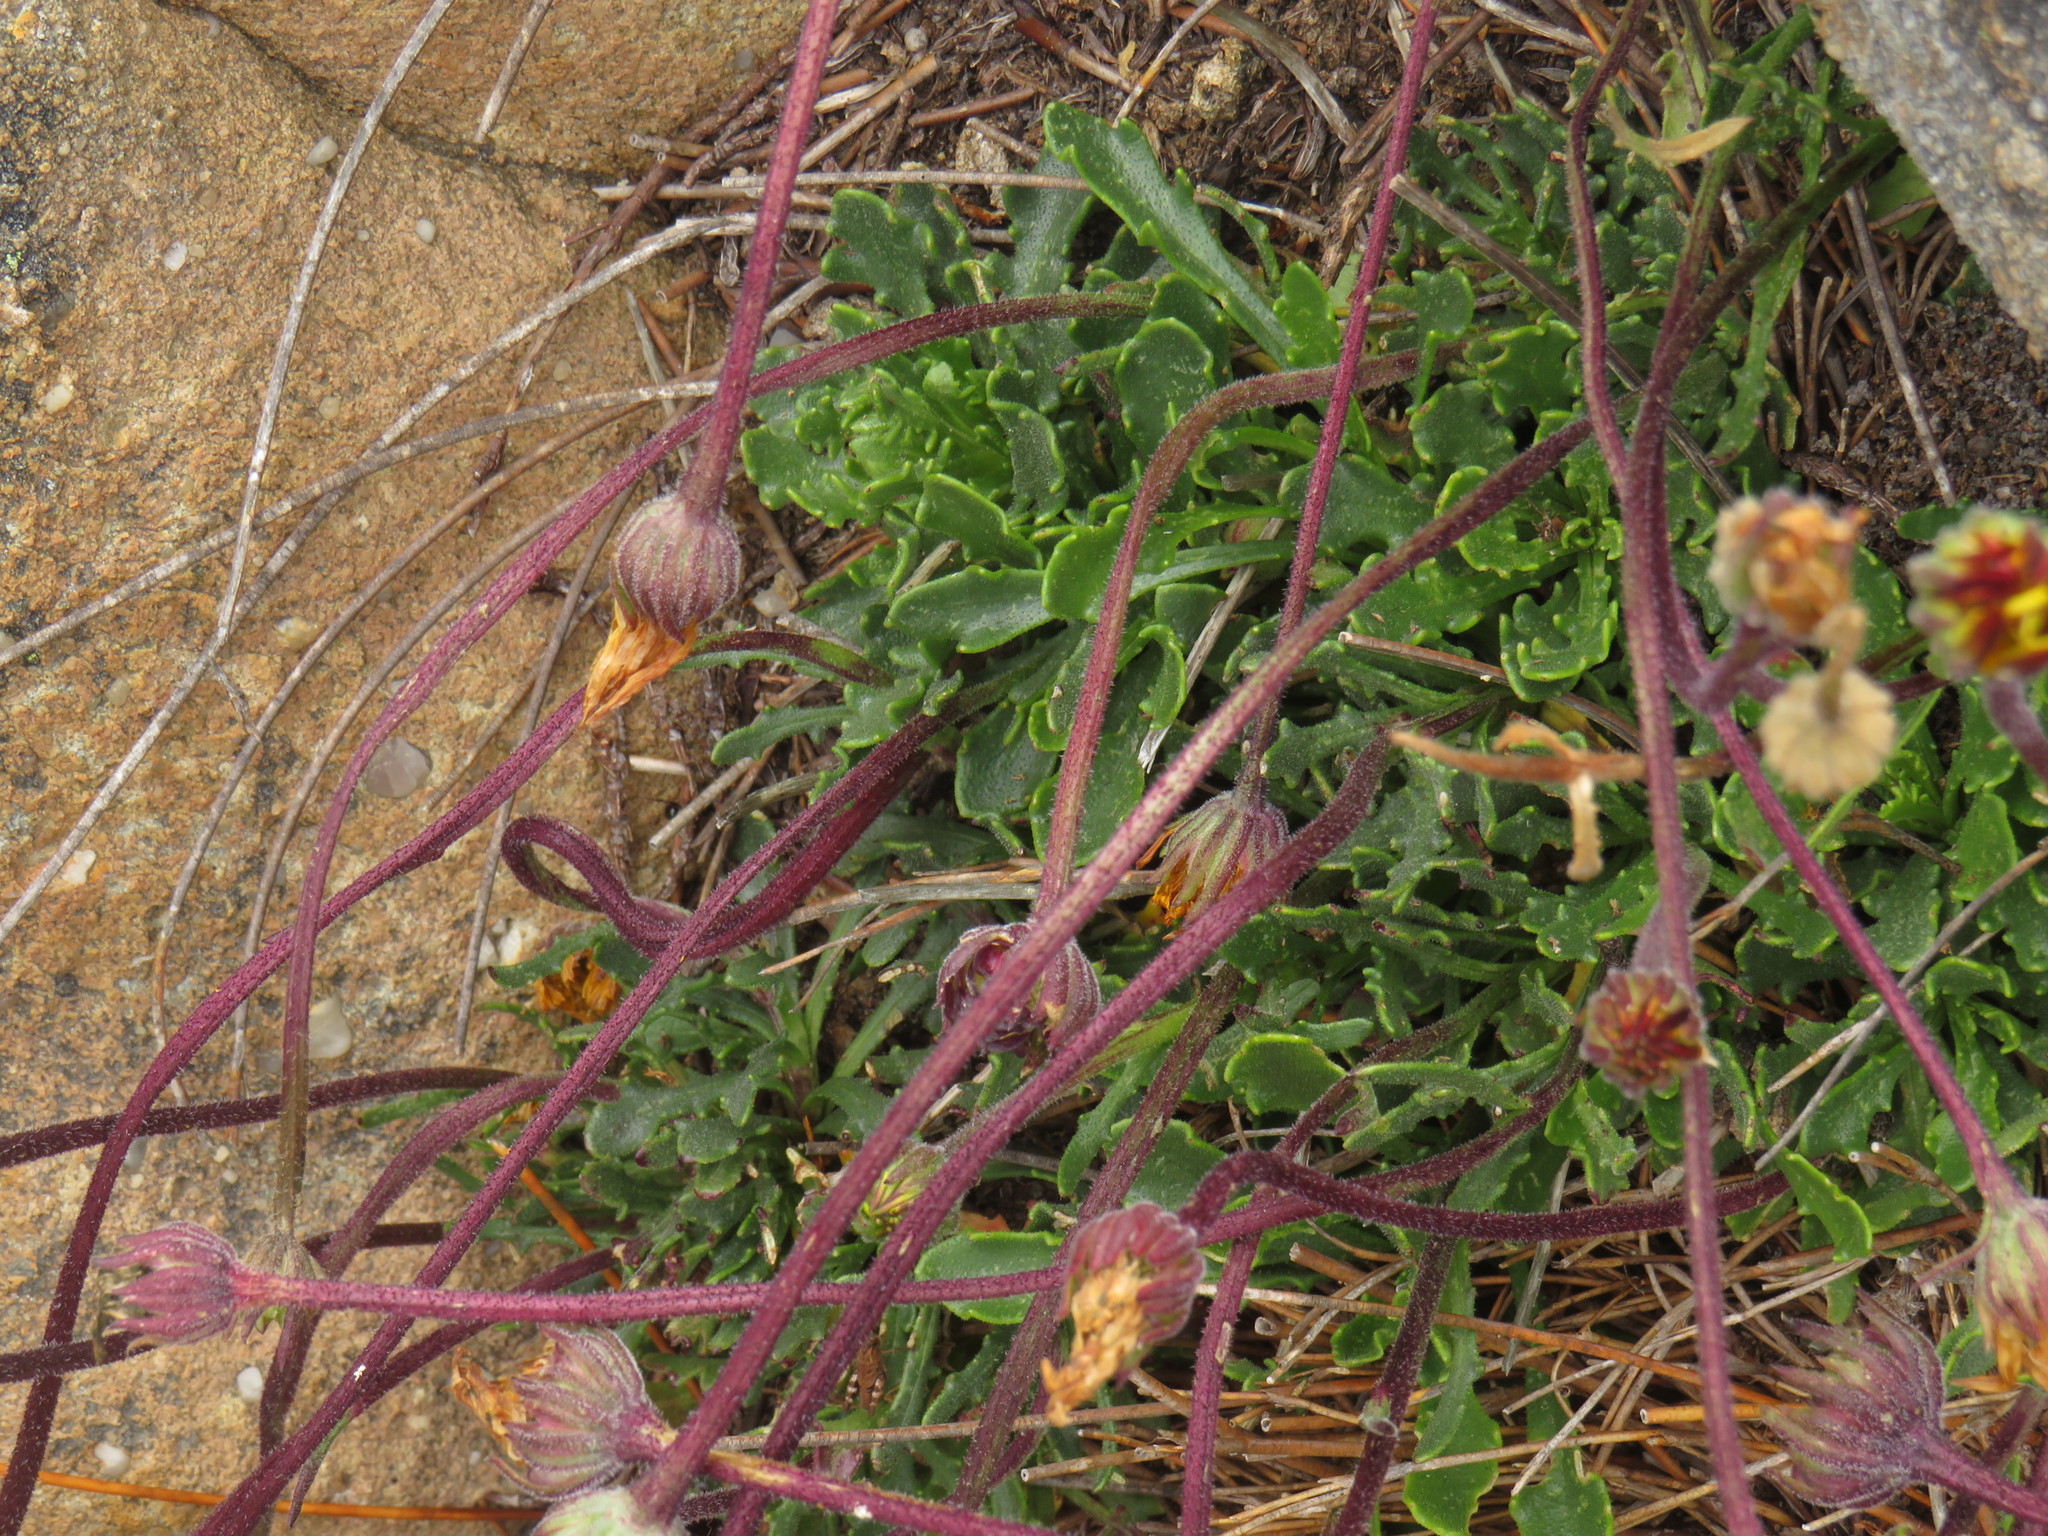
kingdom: Plantae
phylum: Tracheophyta
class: Magnoliopsida
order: Asterales
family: Asteraceae
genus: Dimorphotheca
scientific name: Dimorphotheca montana
